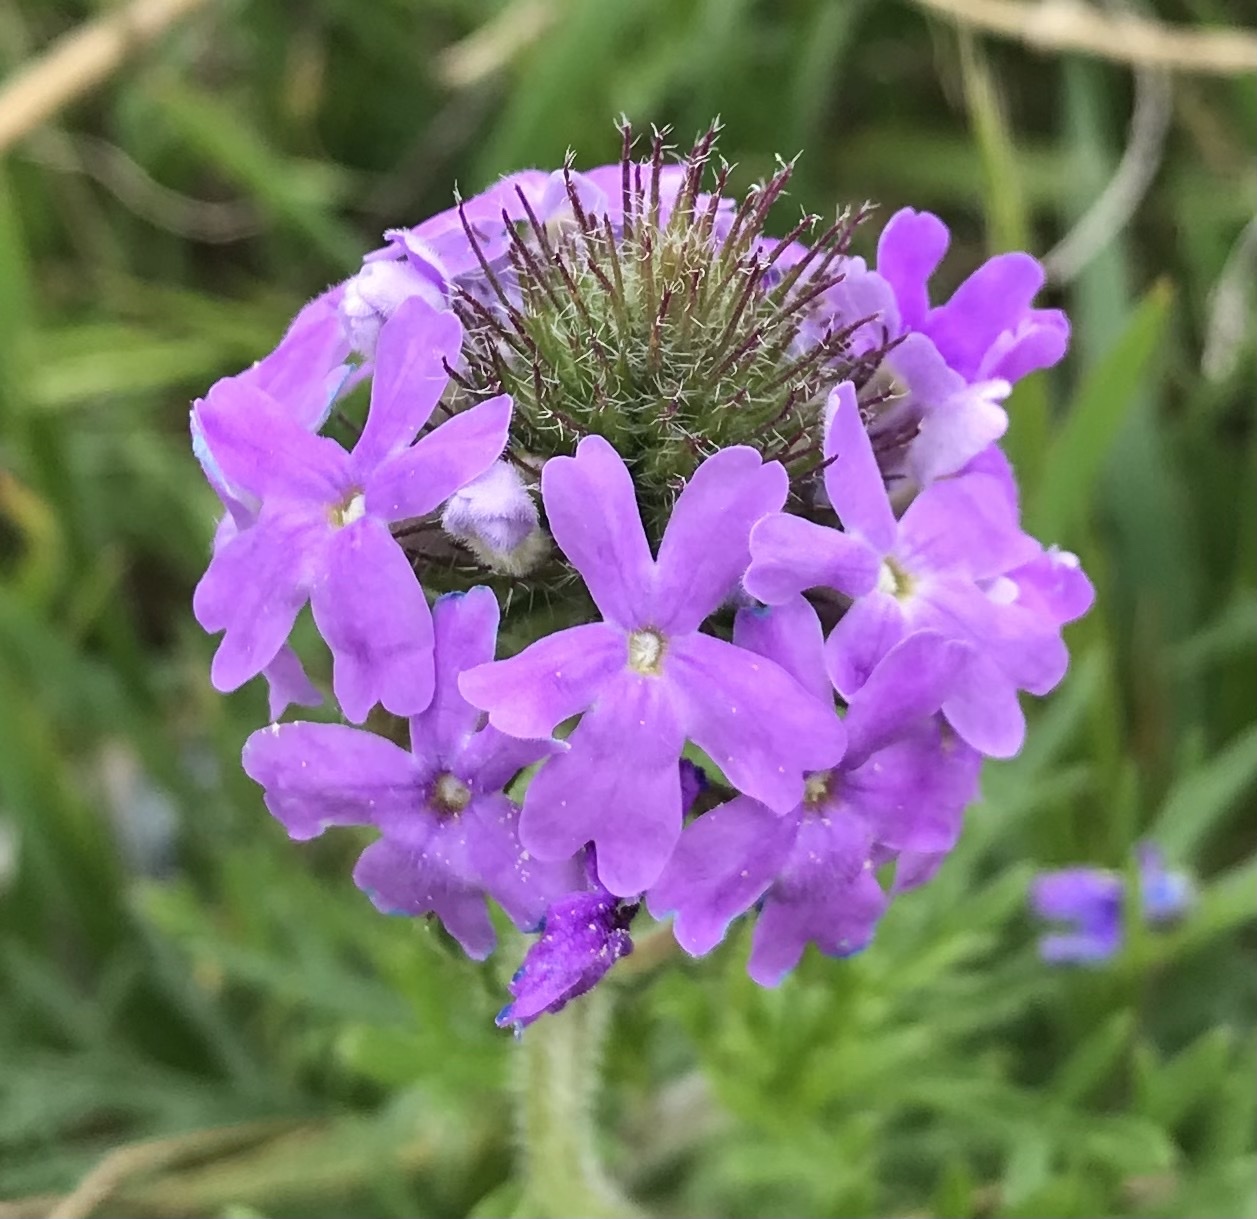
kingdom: Plantae
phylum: Tracheophyta
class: Magnoliopsida
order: Lamiales
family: Verbenaceae
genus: Verbena
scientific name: Verbena bipinnatifida
